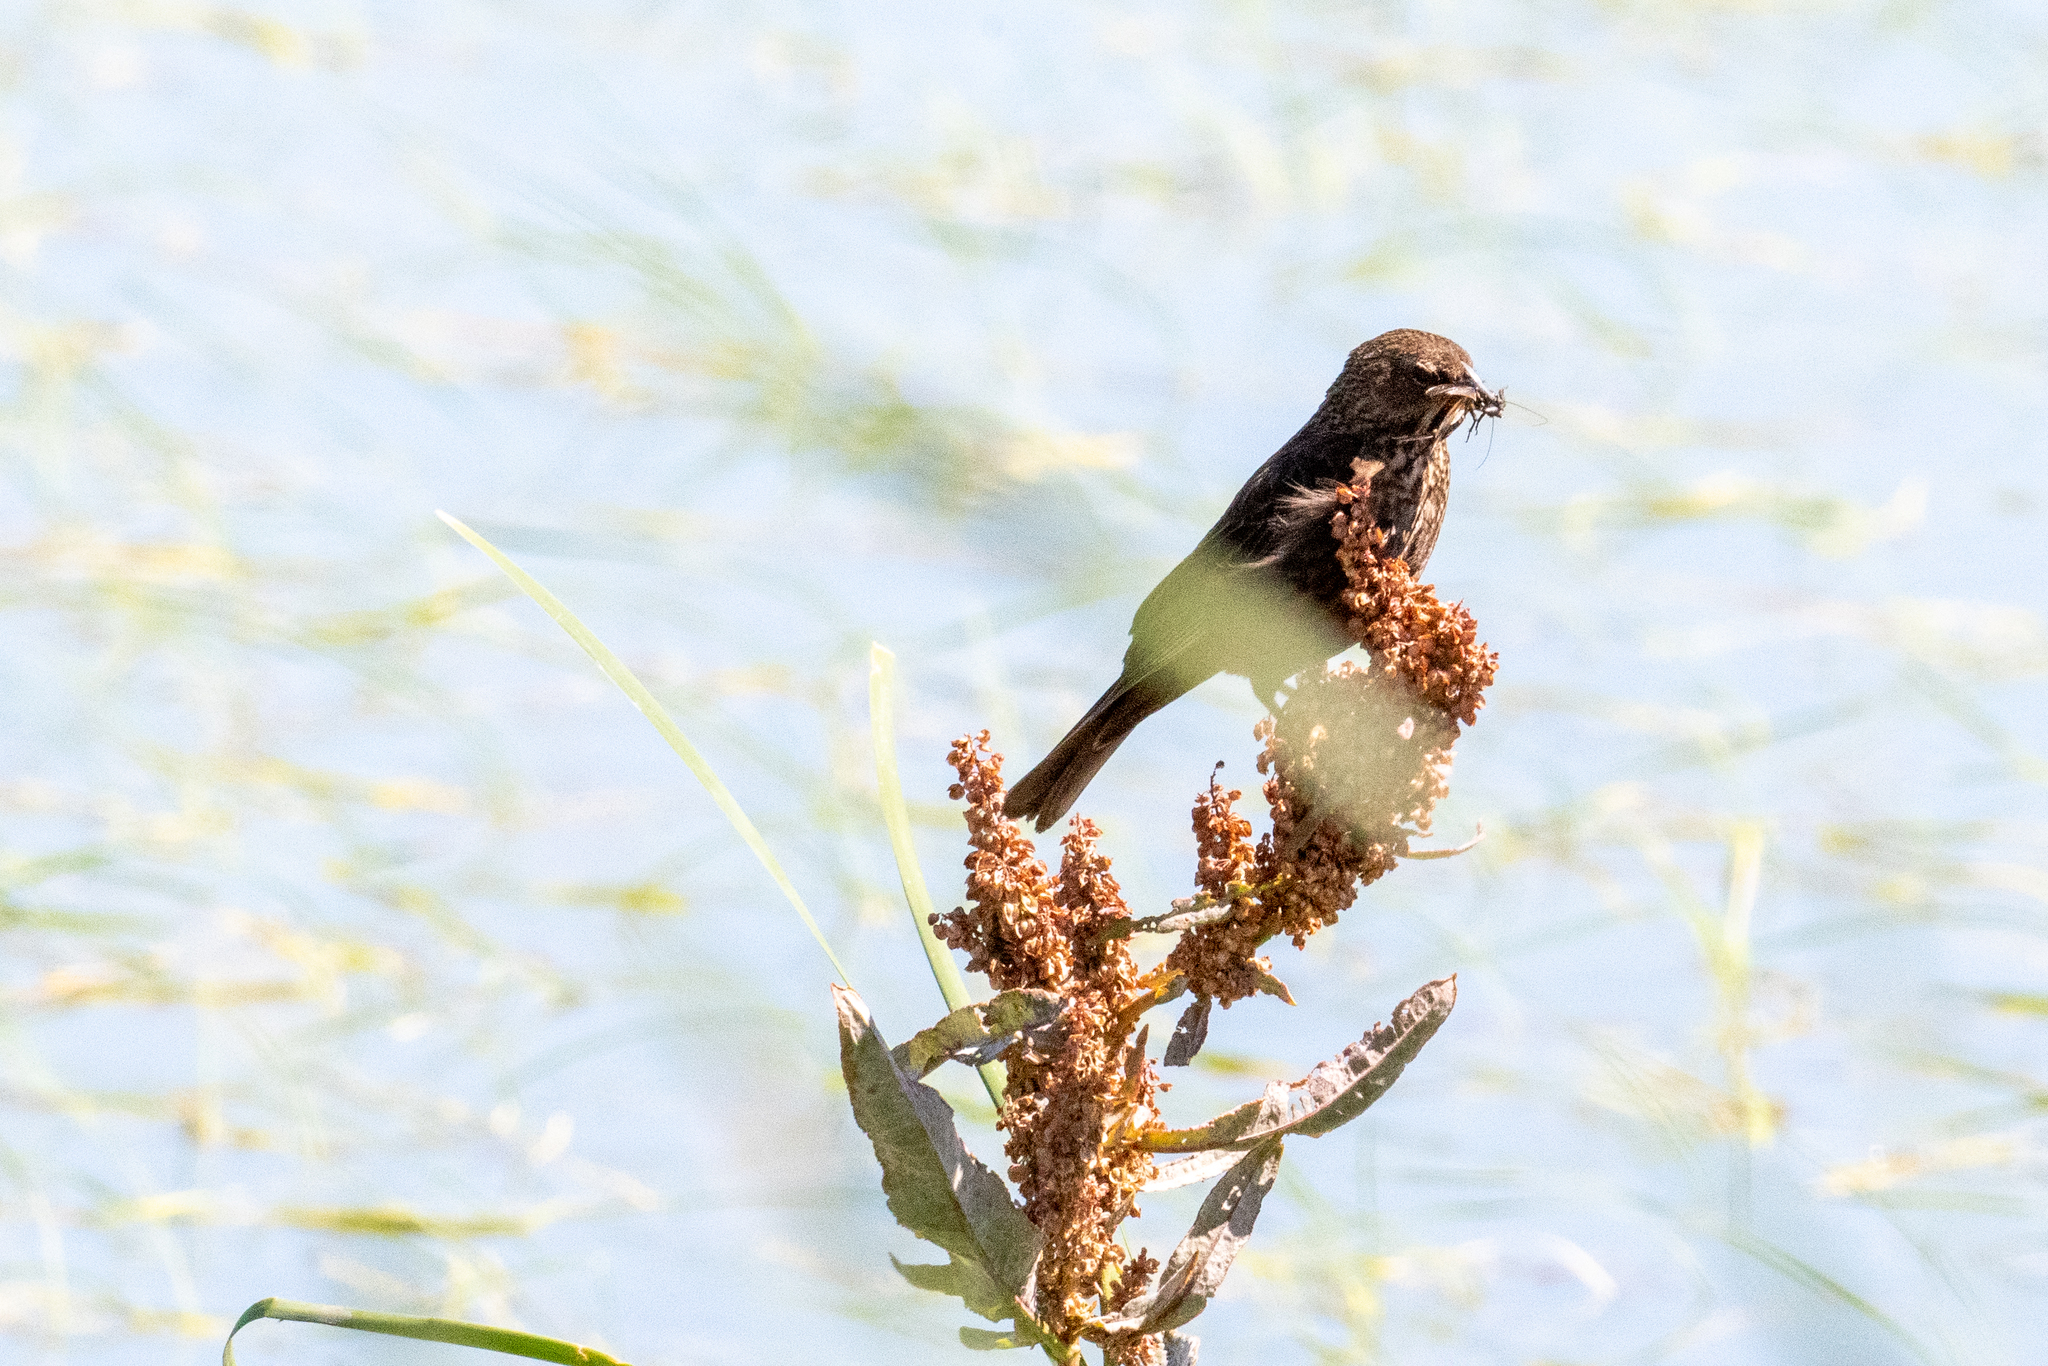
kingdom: Animalia
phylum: Chordata
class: Aves
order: Passeriformes
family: Icteridae
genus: Agelaius
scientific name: Agelaius phoeniceus
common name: Red-winged blackbird
